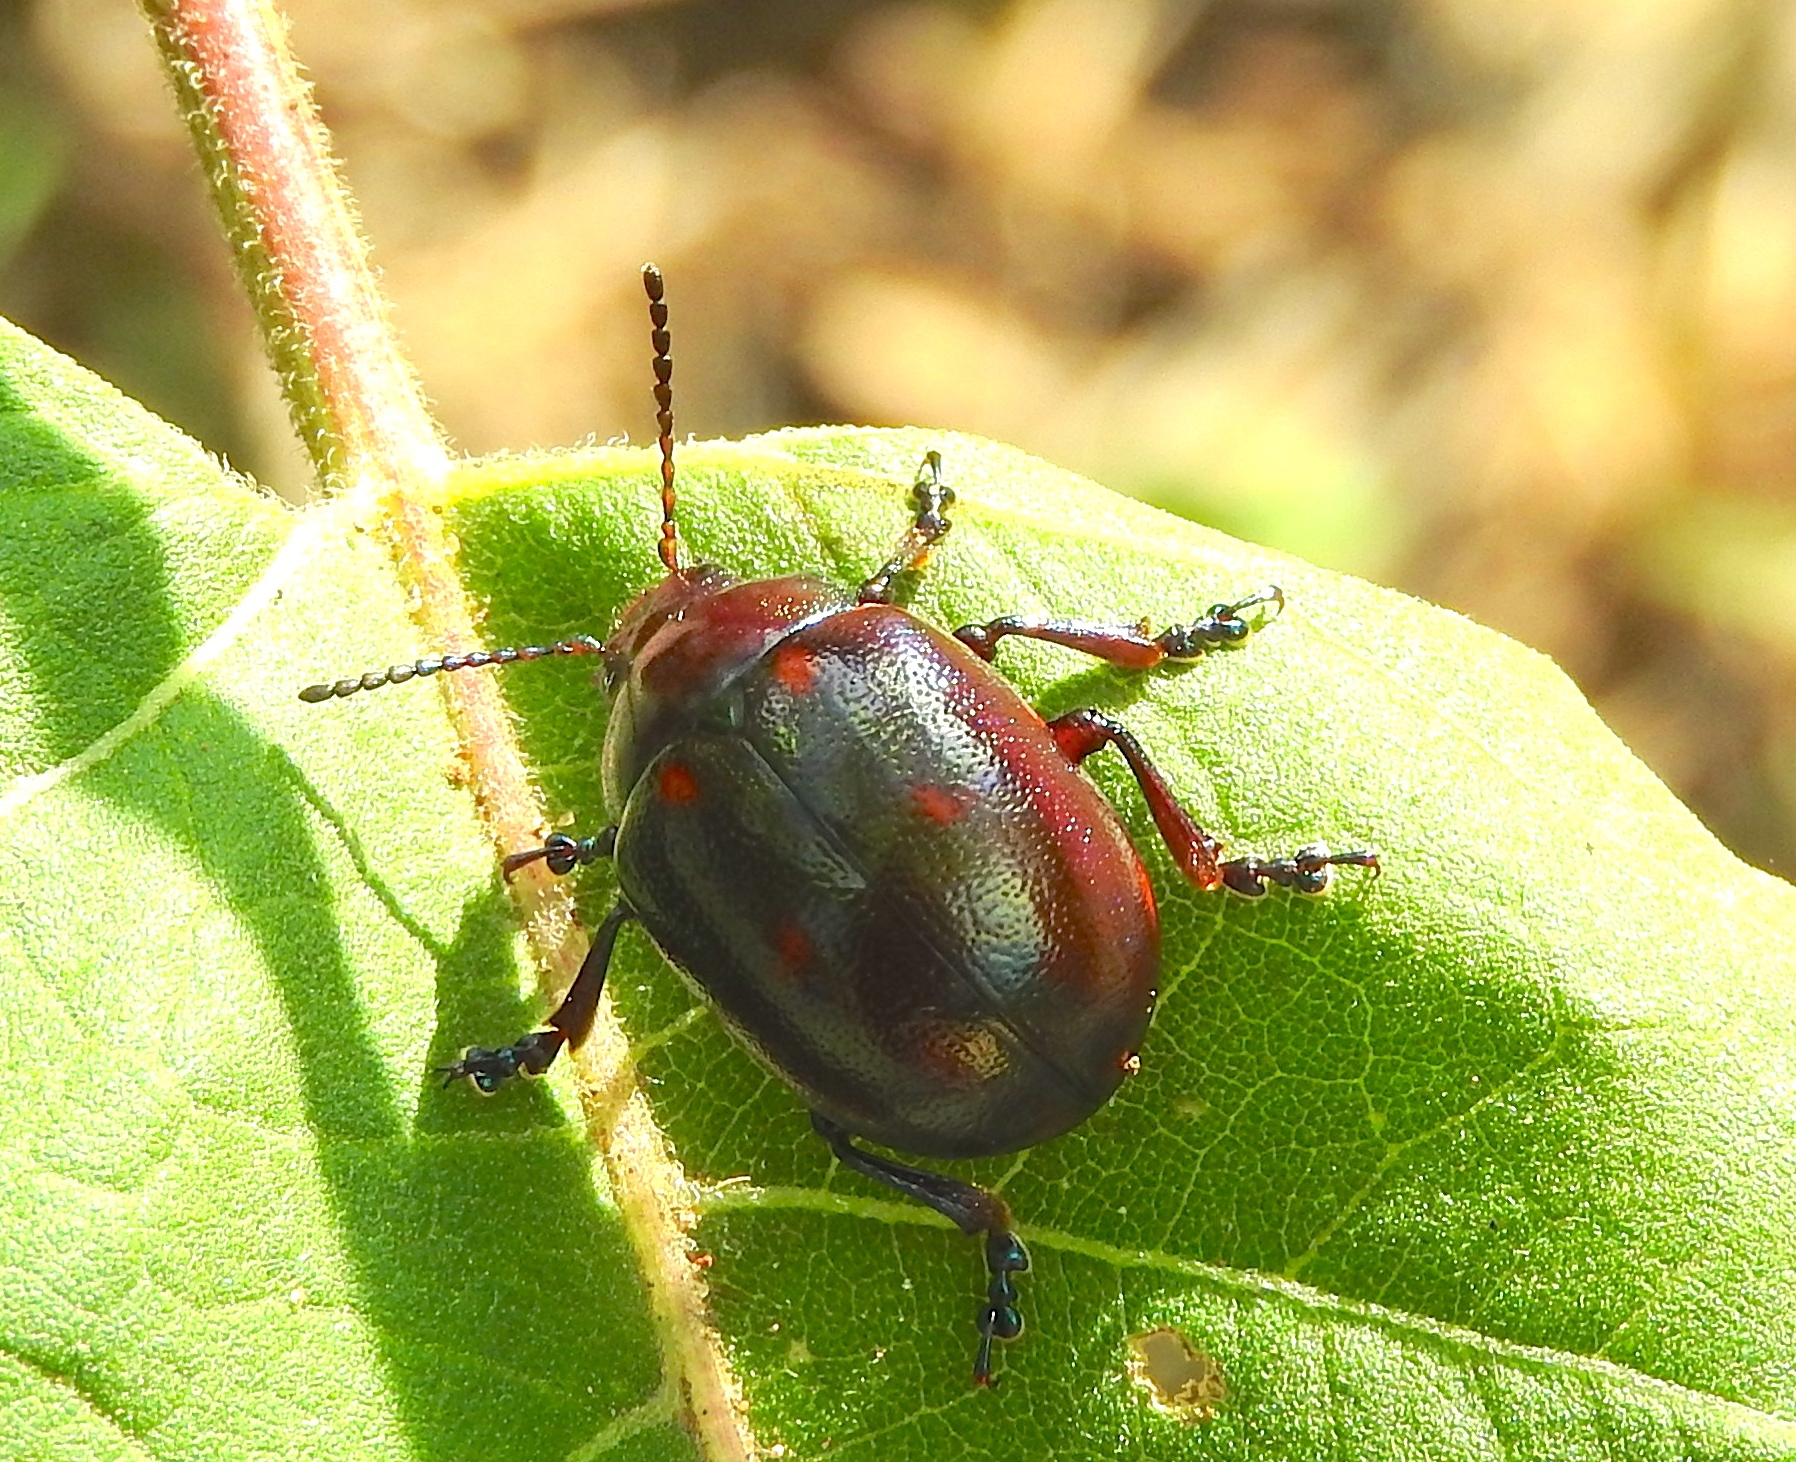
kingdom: Animalia
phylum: Arthropoda
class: Insecta
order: Coleoptera
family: Chrysomelidae
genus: Leptinotarsa
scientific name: Leptinotarsa behrensi
